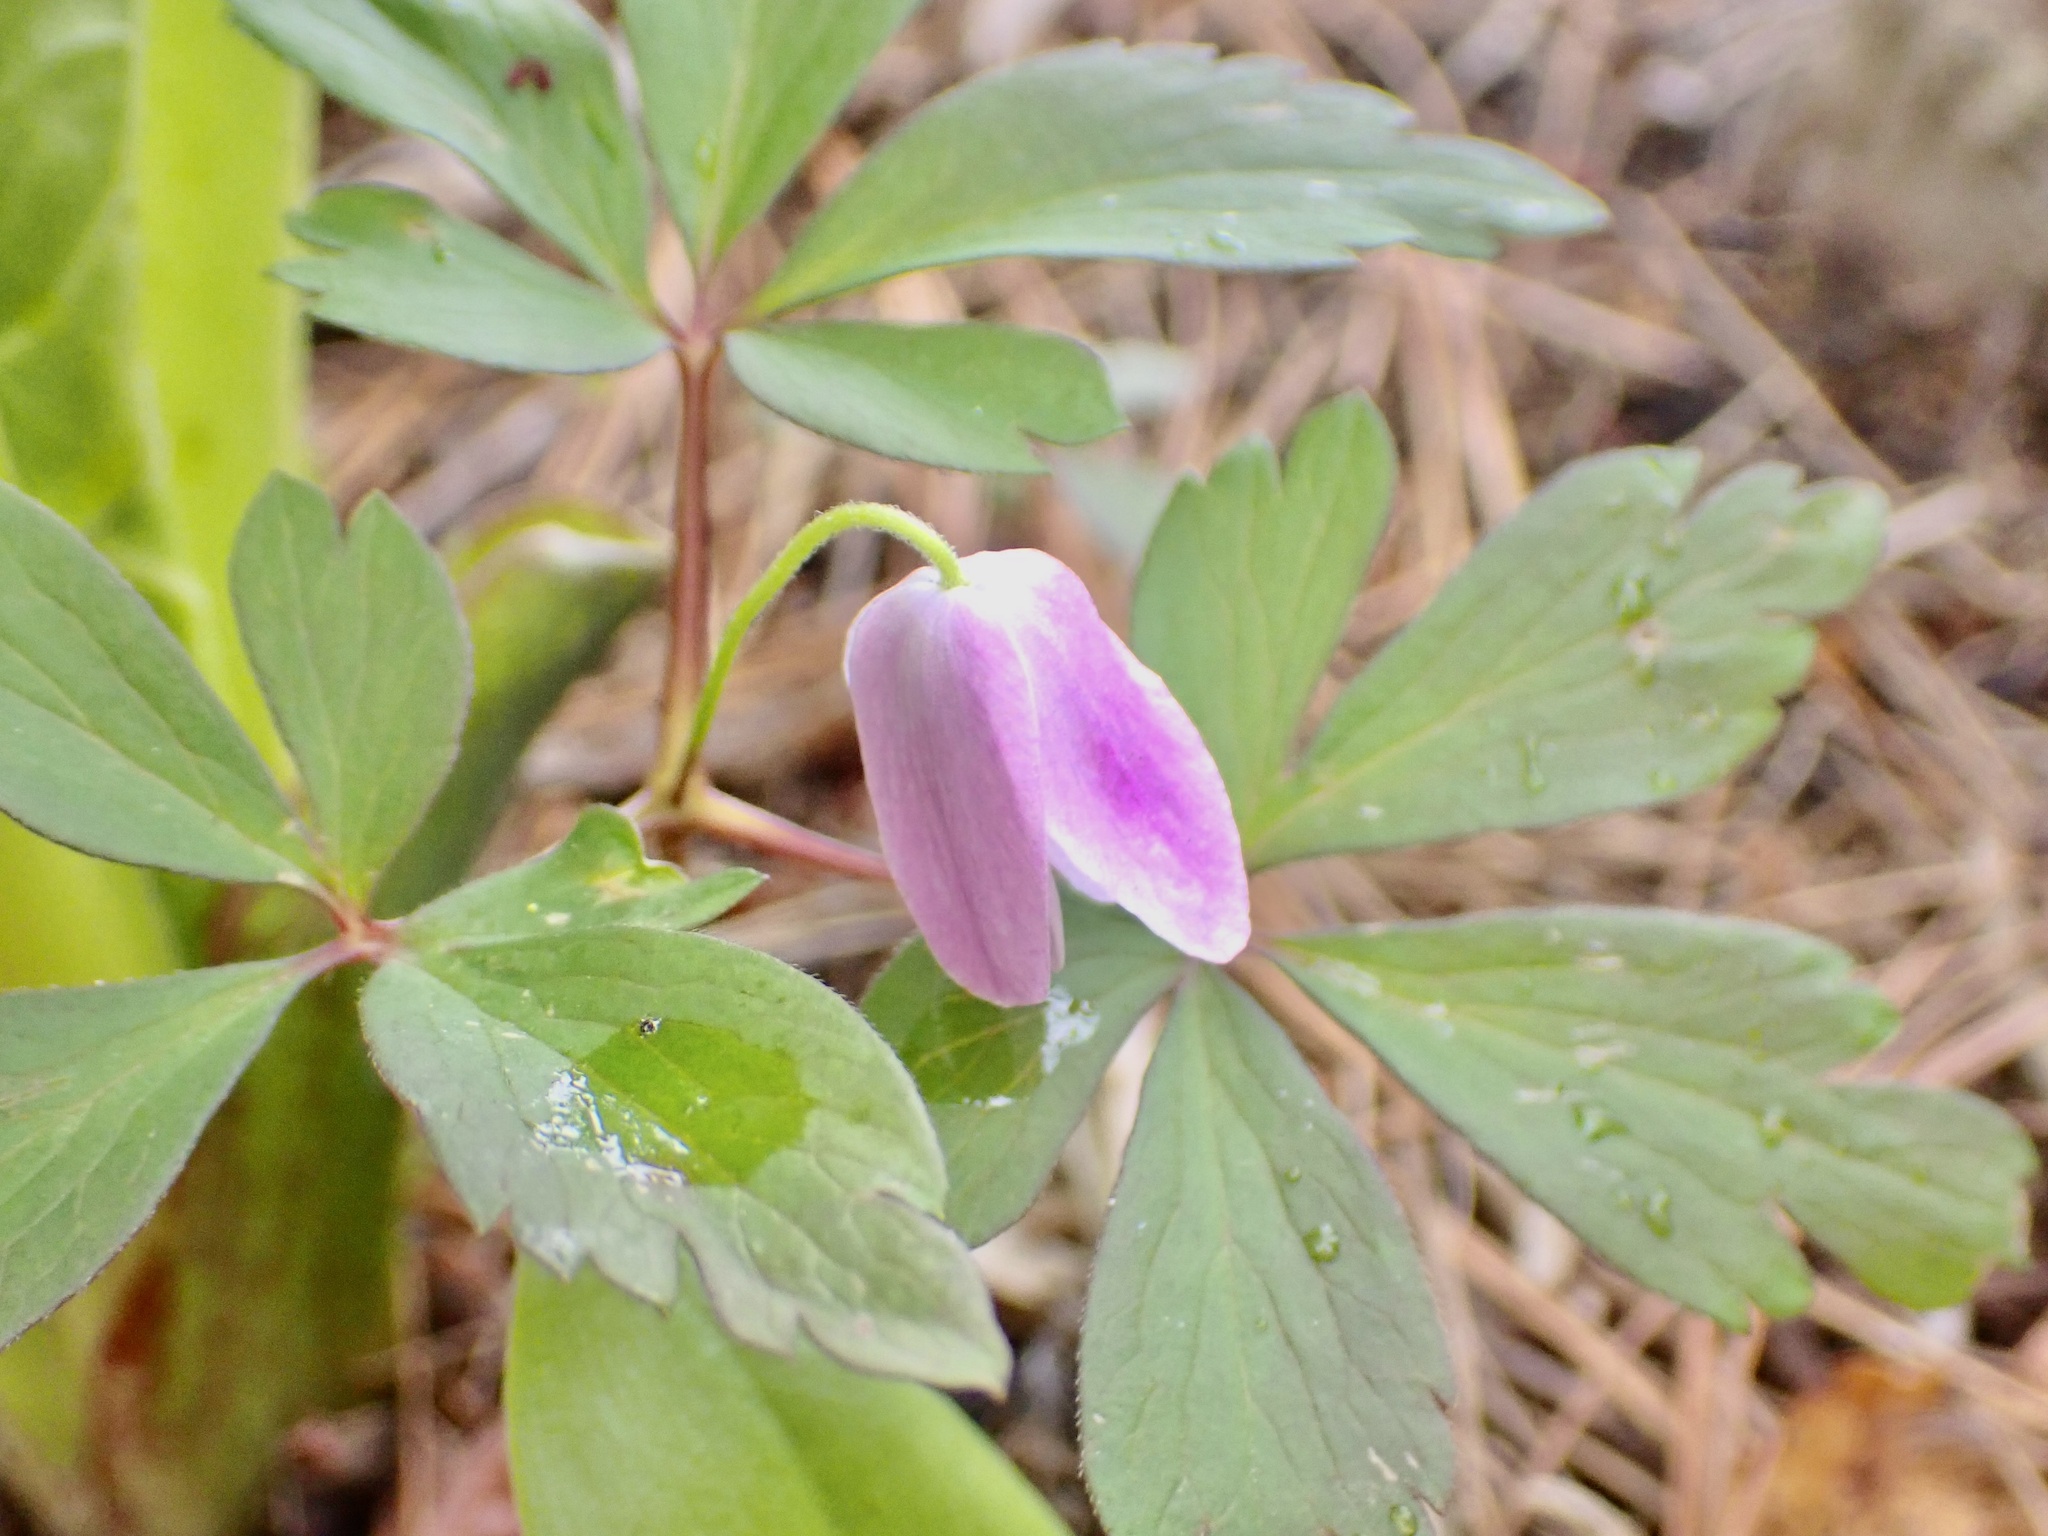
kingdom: Plantae
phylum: Tracheophyta
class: Magnoliopsida
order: Ranunculales
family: Ranunculaceae
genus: Anemone
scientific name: Anemone quinquefolia
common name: Wood anemone
